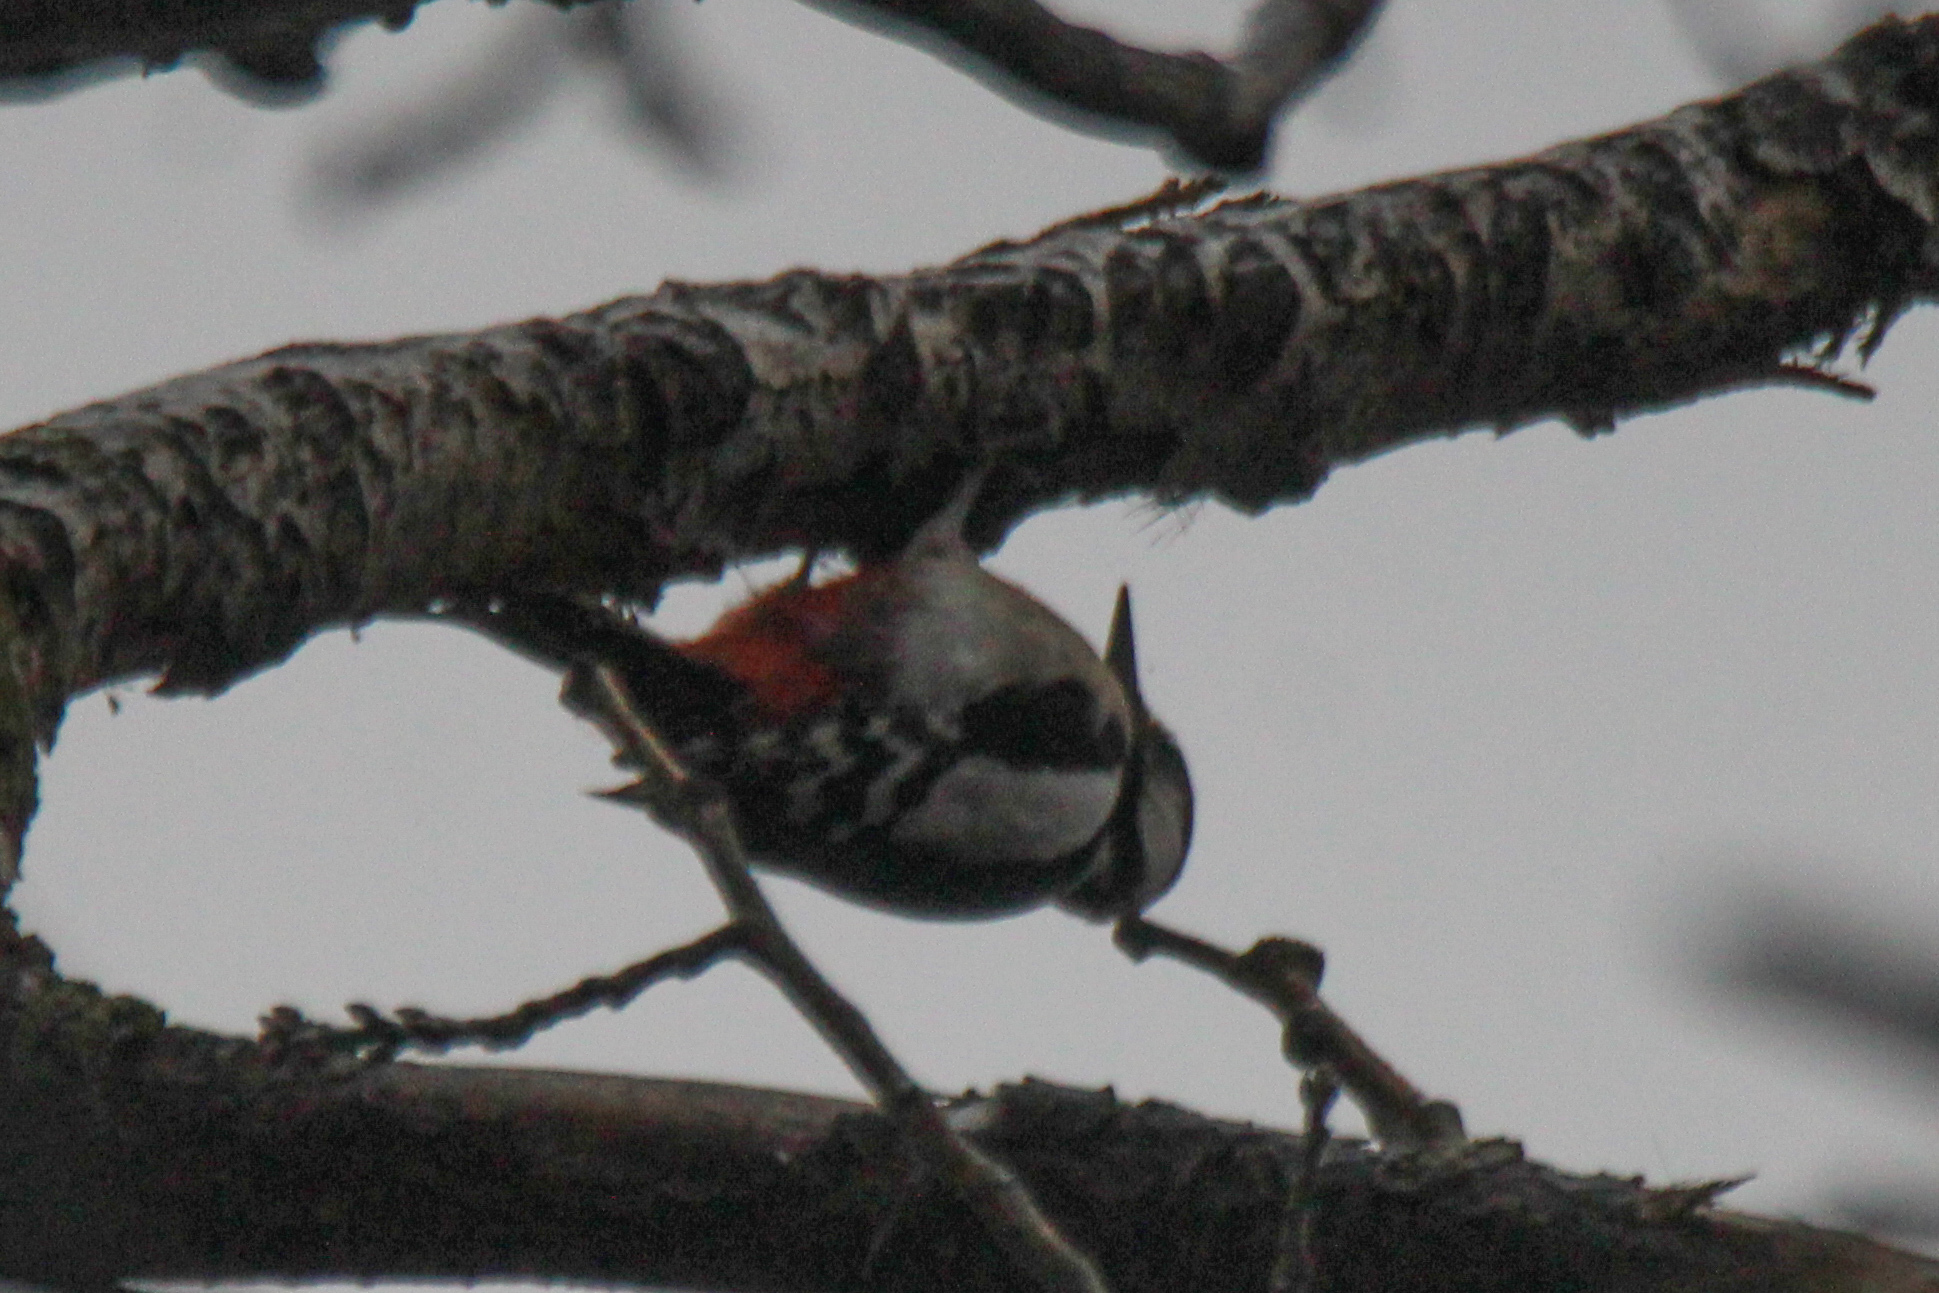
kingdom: Animalia
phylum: Chordata
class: Aves
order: Piciformes
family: Picidae
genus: Dendrocopos
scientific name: Dendrocopos major
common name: Great spotted woodpecker
